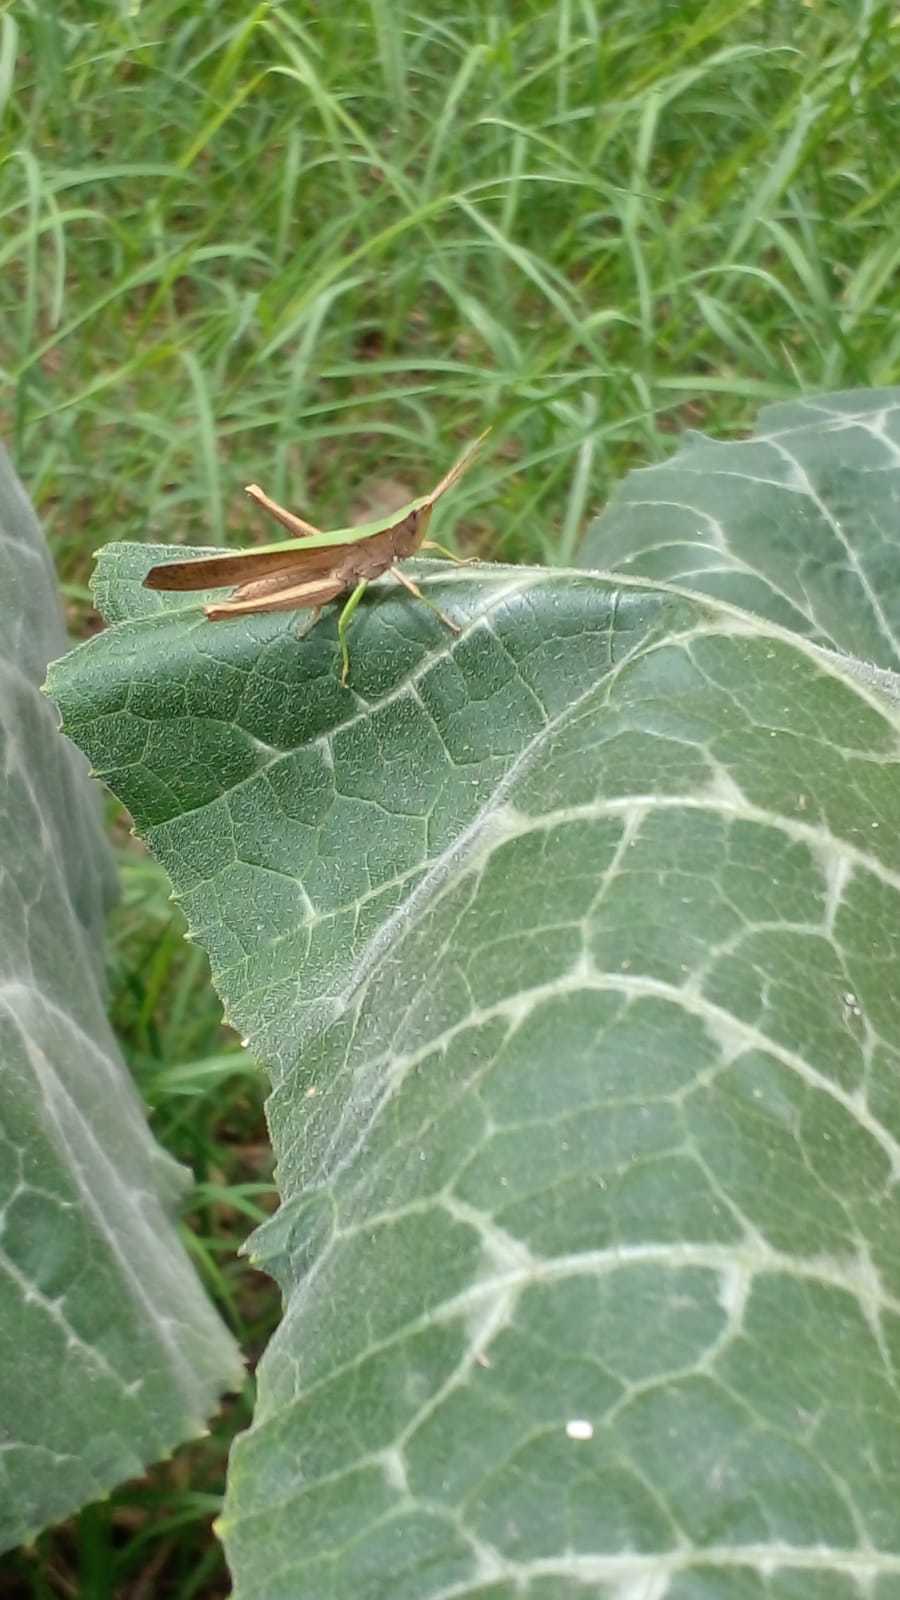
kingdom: Animalia
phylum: Arthropoda
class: Insecta
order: Orthoptera
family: Acrididae
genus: Metaleptea
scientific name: Metaleptea adspersa
